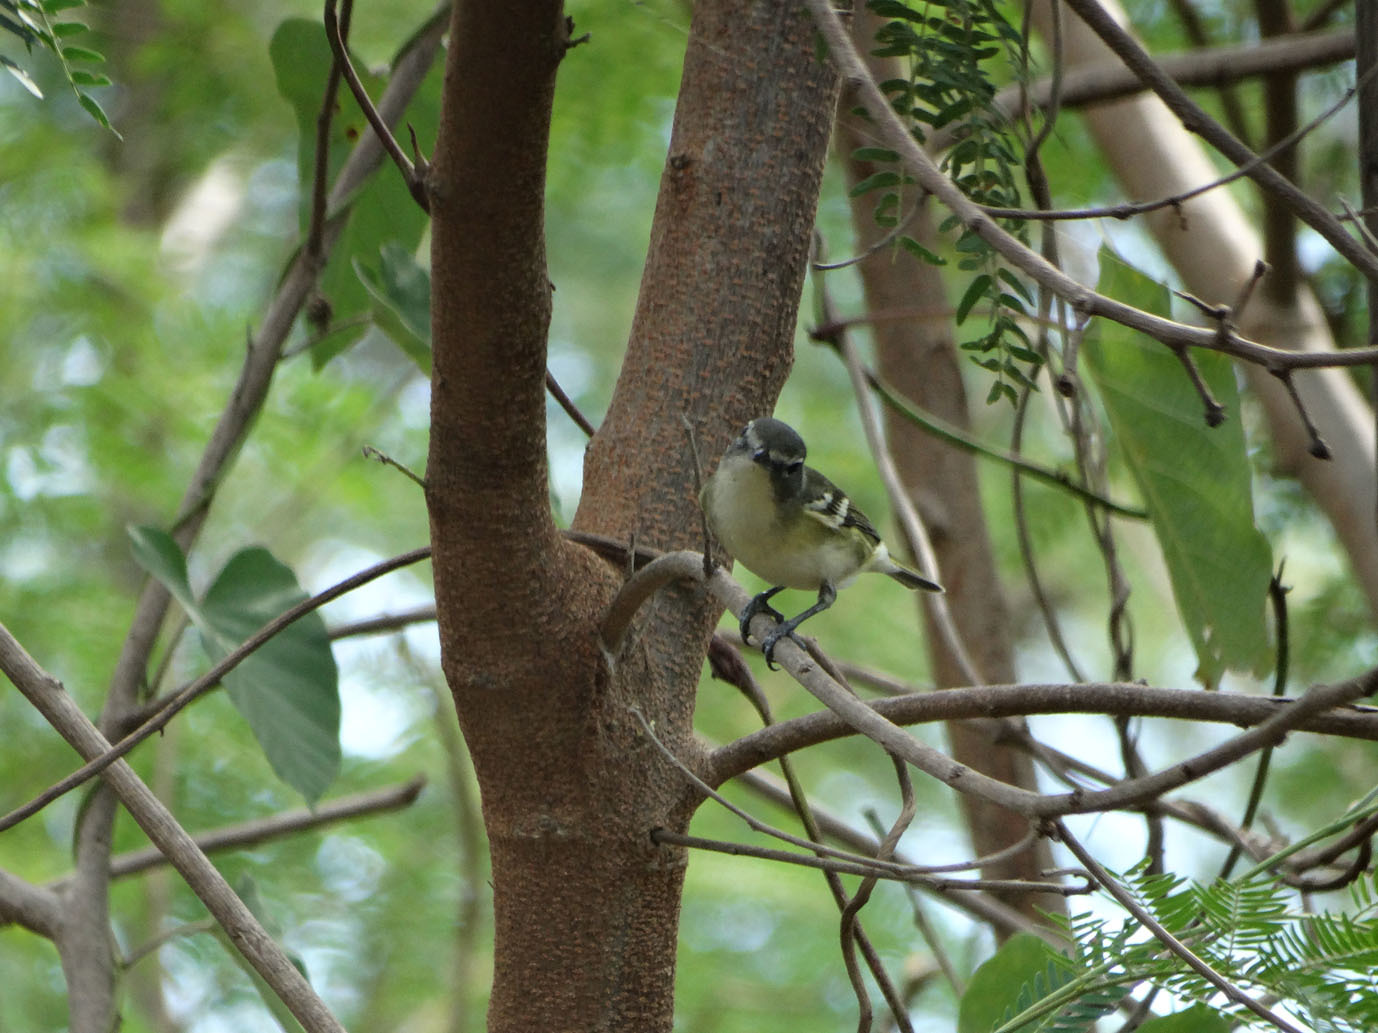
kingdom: Animalia
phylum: Chordata
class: Aves
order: Passeriformes
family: Vireonidae
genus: Vireo
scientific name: Vireo solitarius
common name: Blue-headed vireo
